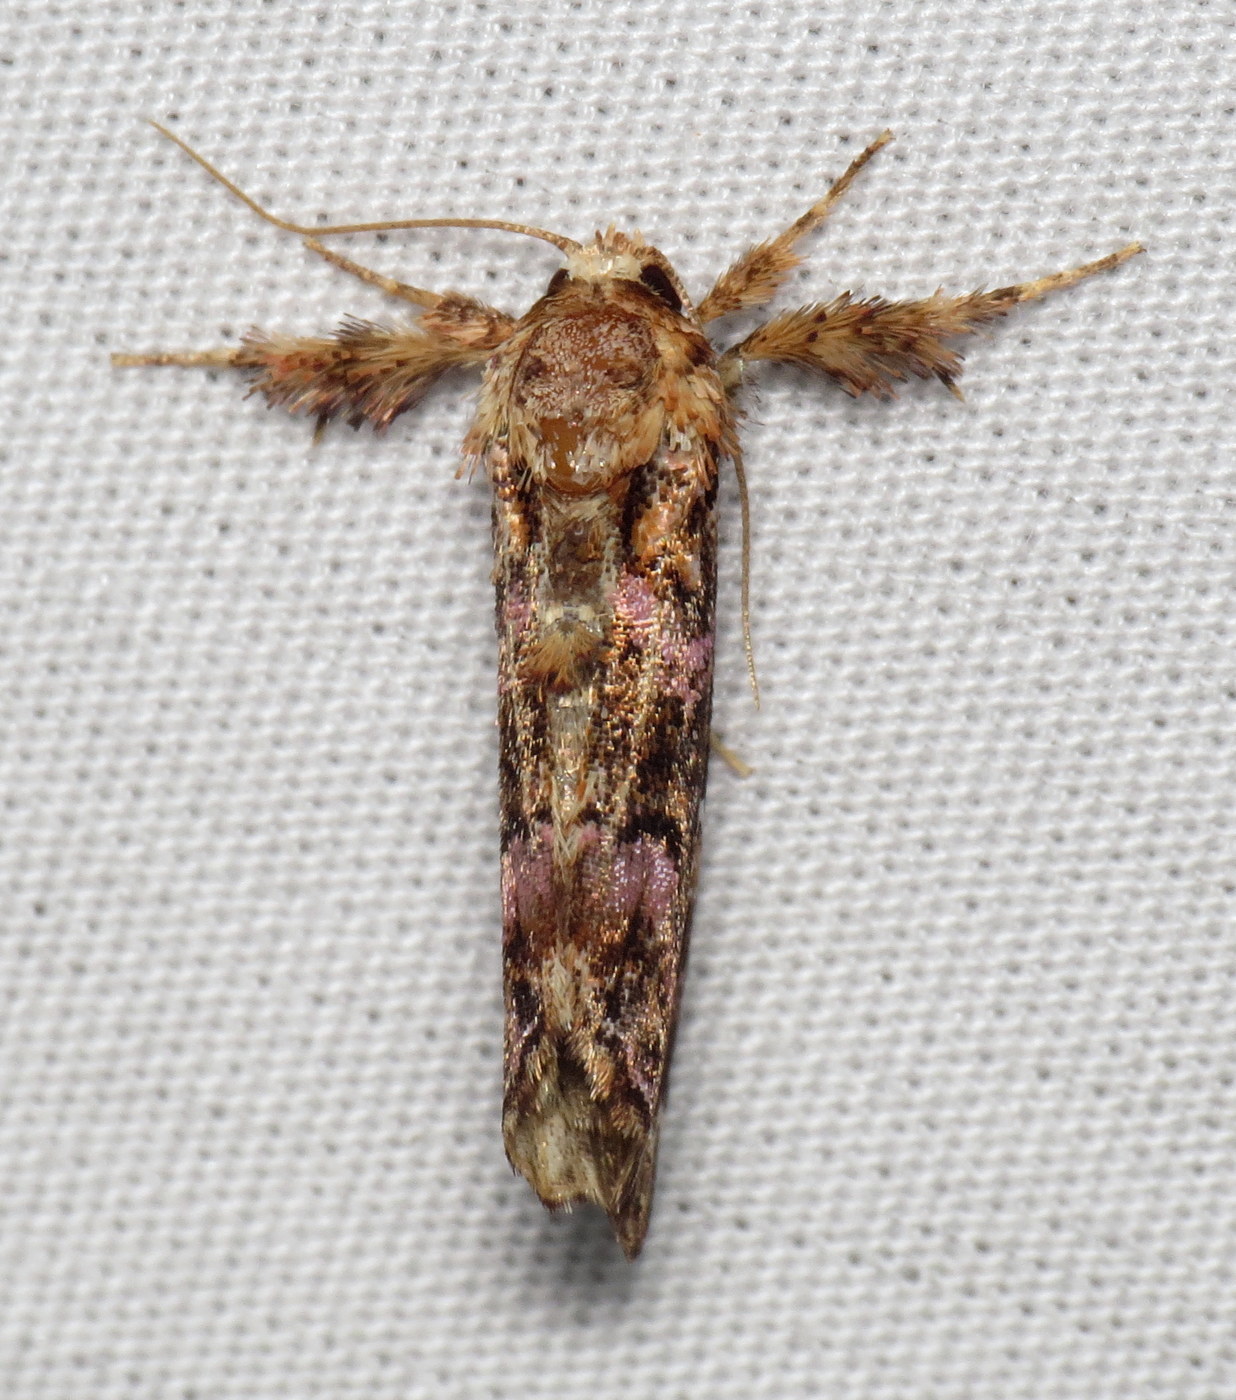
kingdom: Animalia
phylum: Arthropoda
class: Insecta
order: Lepidoptera
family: Noctuidae
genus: Callopistria
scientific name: Callopistria mollissima
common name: Pink-shaded fern moth
